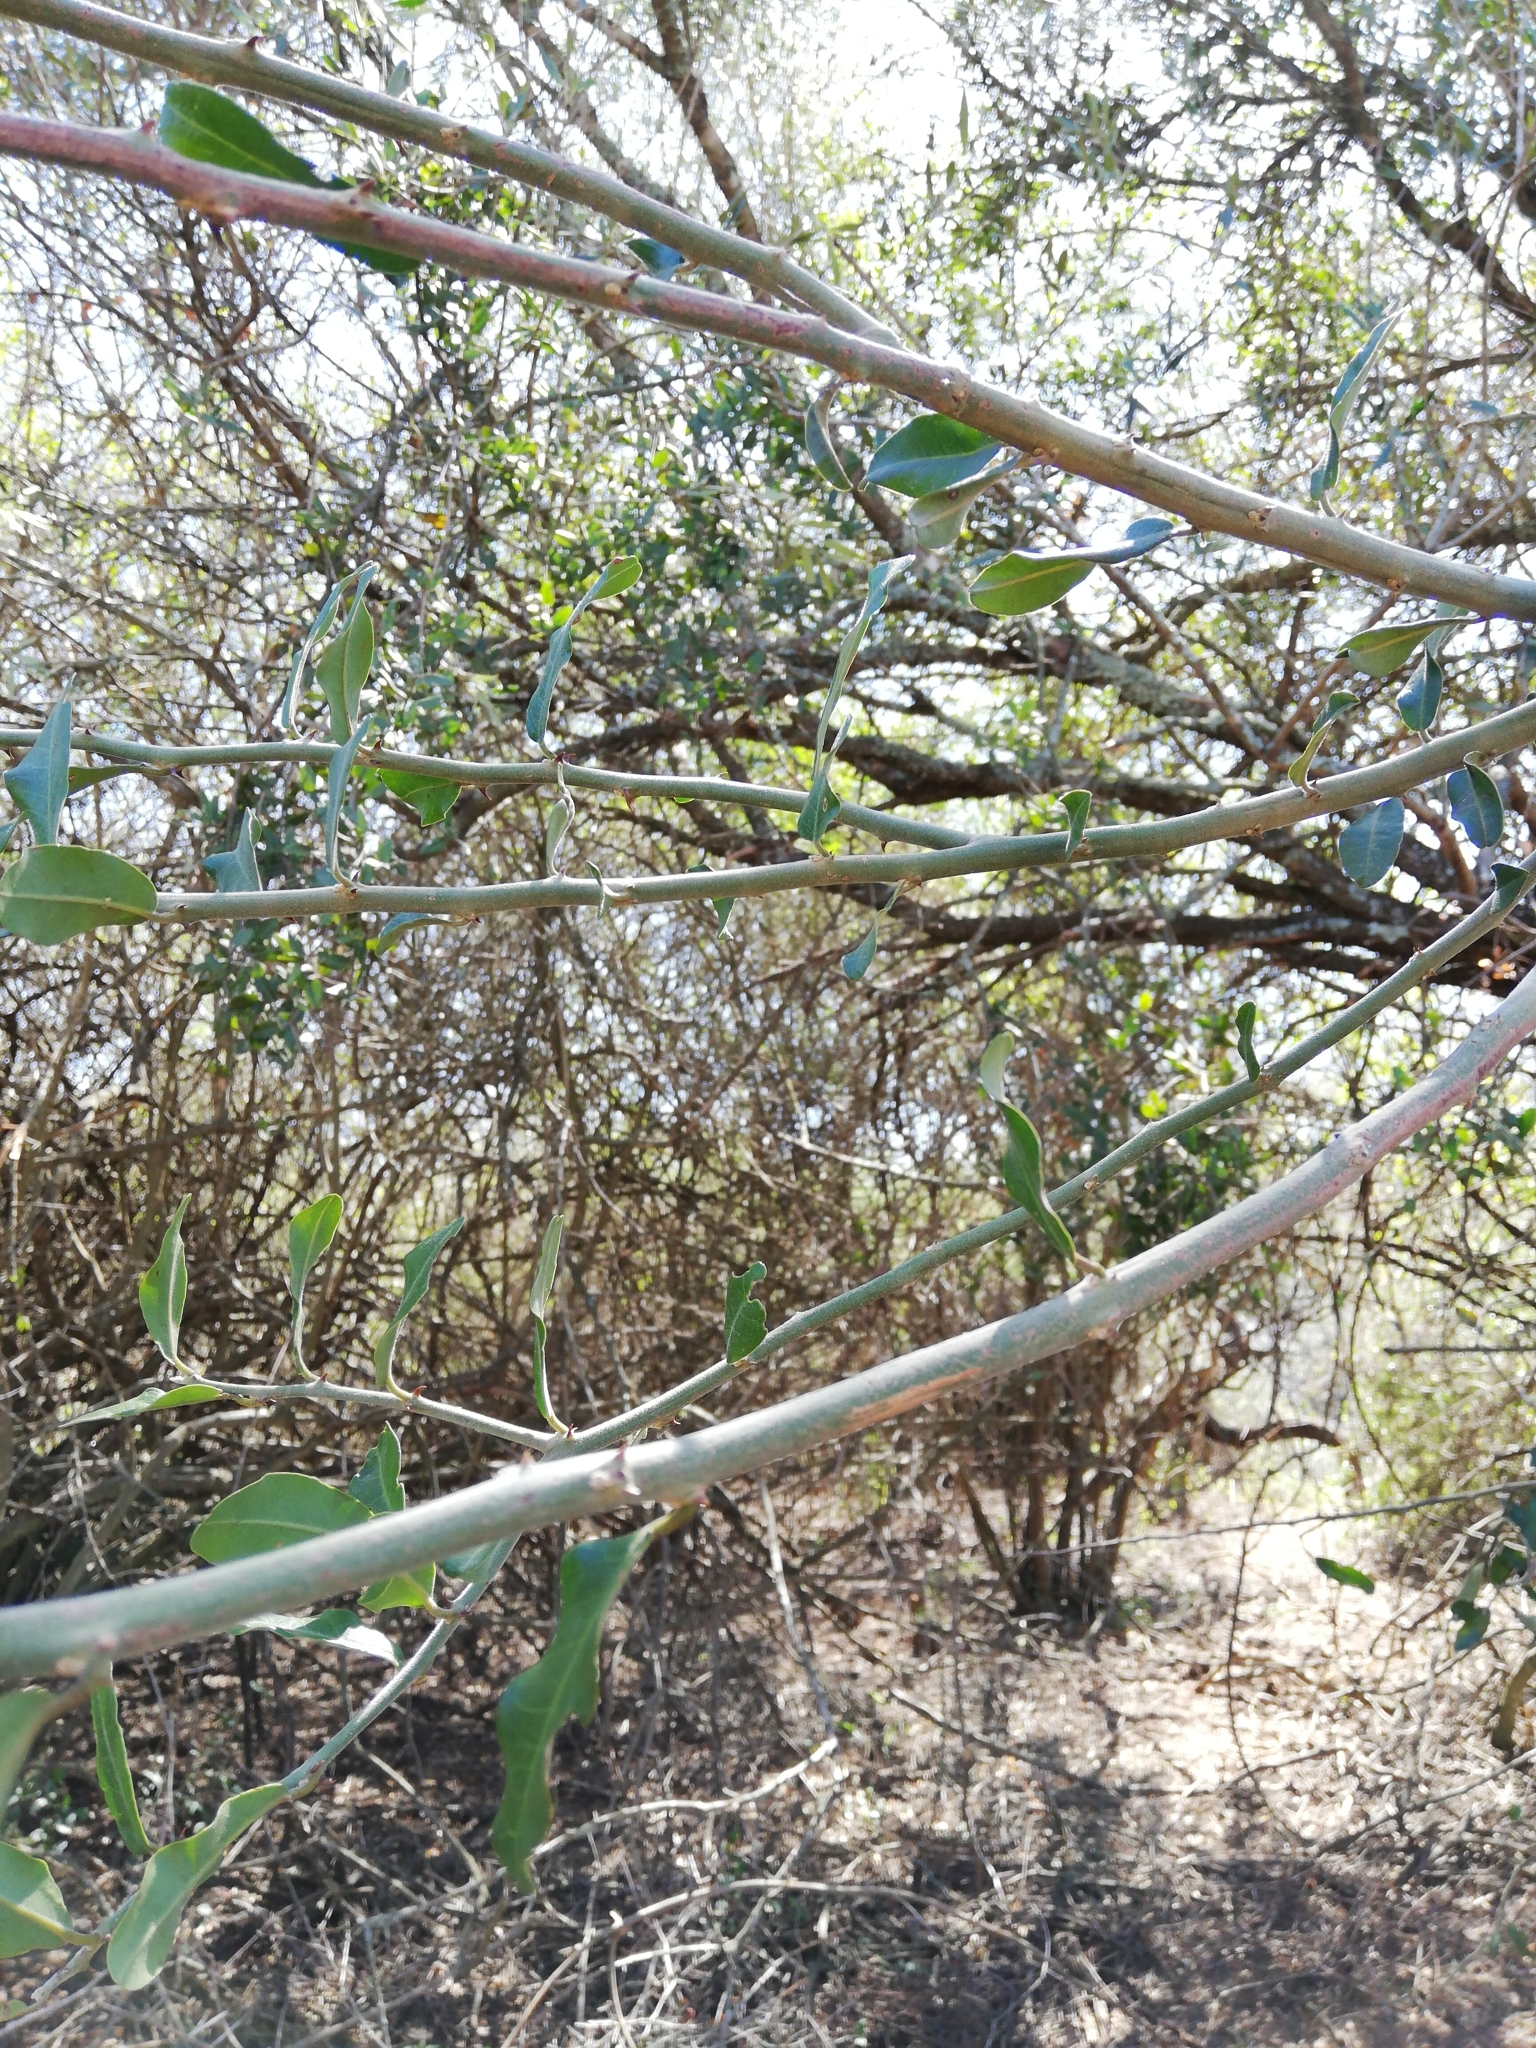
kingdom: Plantae
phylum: Tracheophyta
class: Magnoliopsida
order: Brassicales
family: Capparaceae
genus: Capparis
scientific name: Capparis sepiaria
